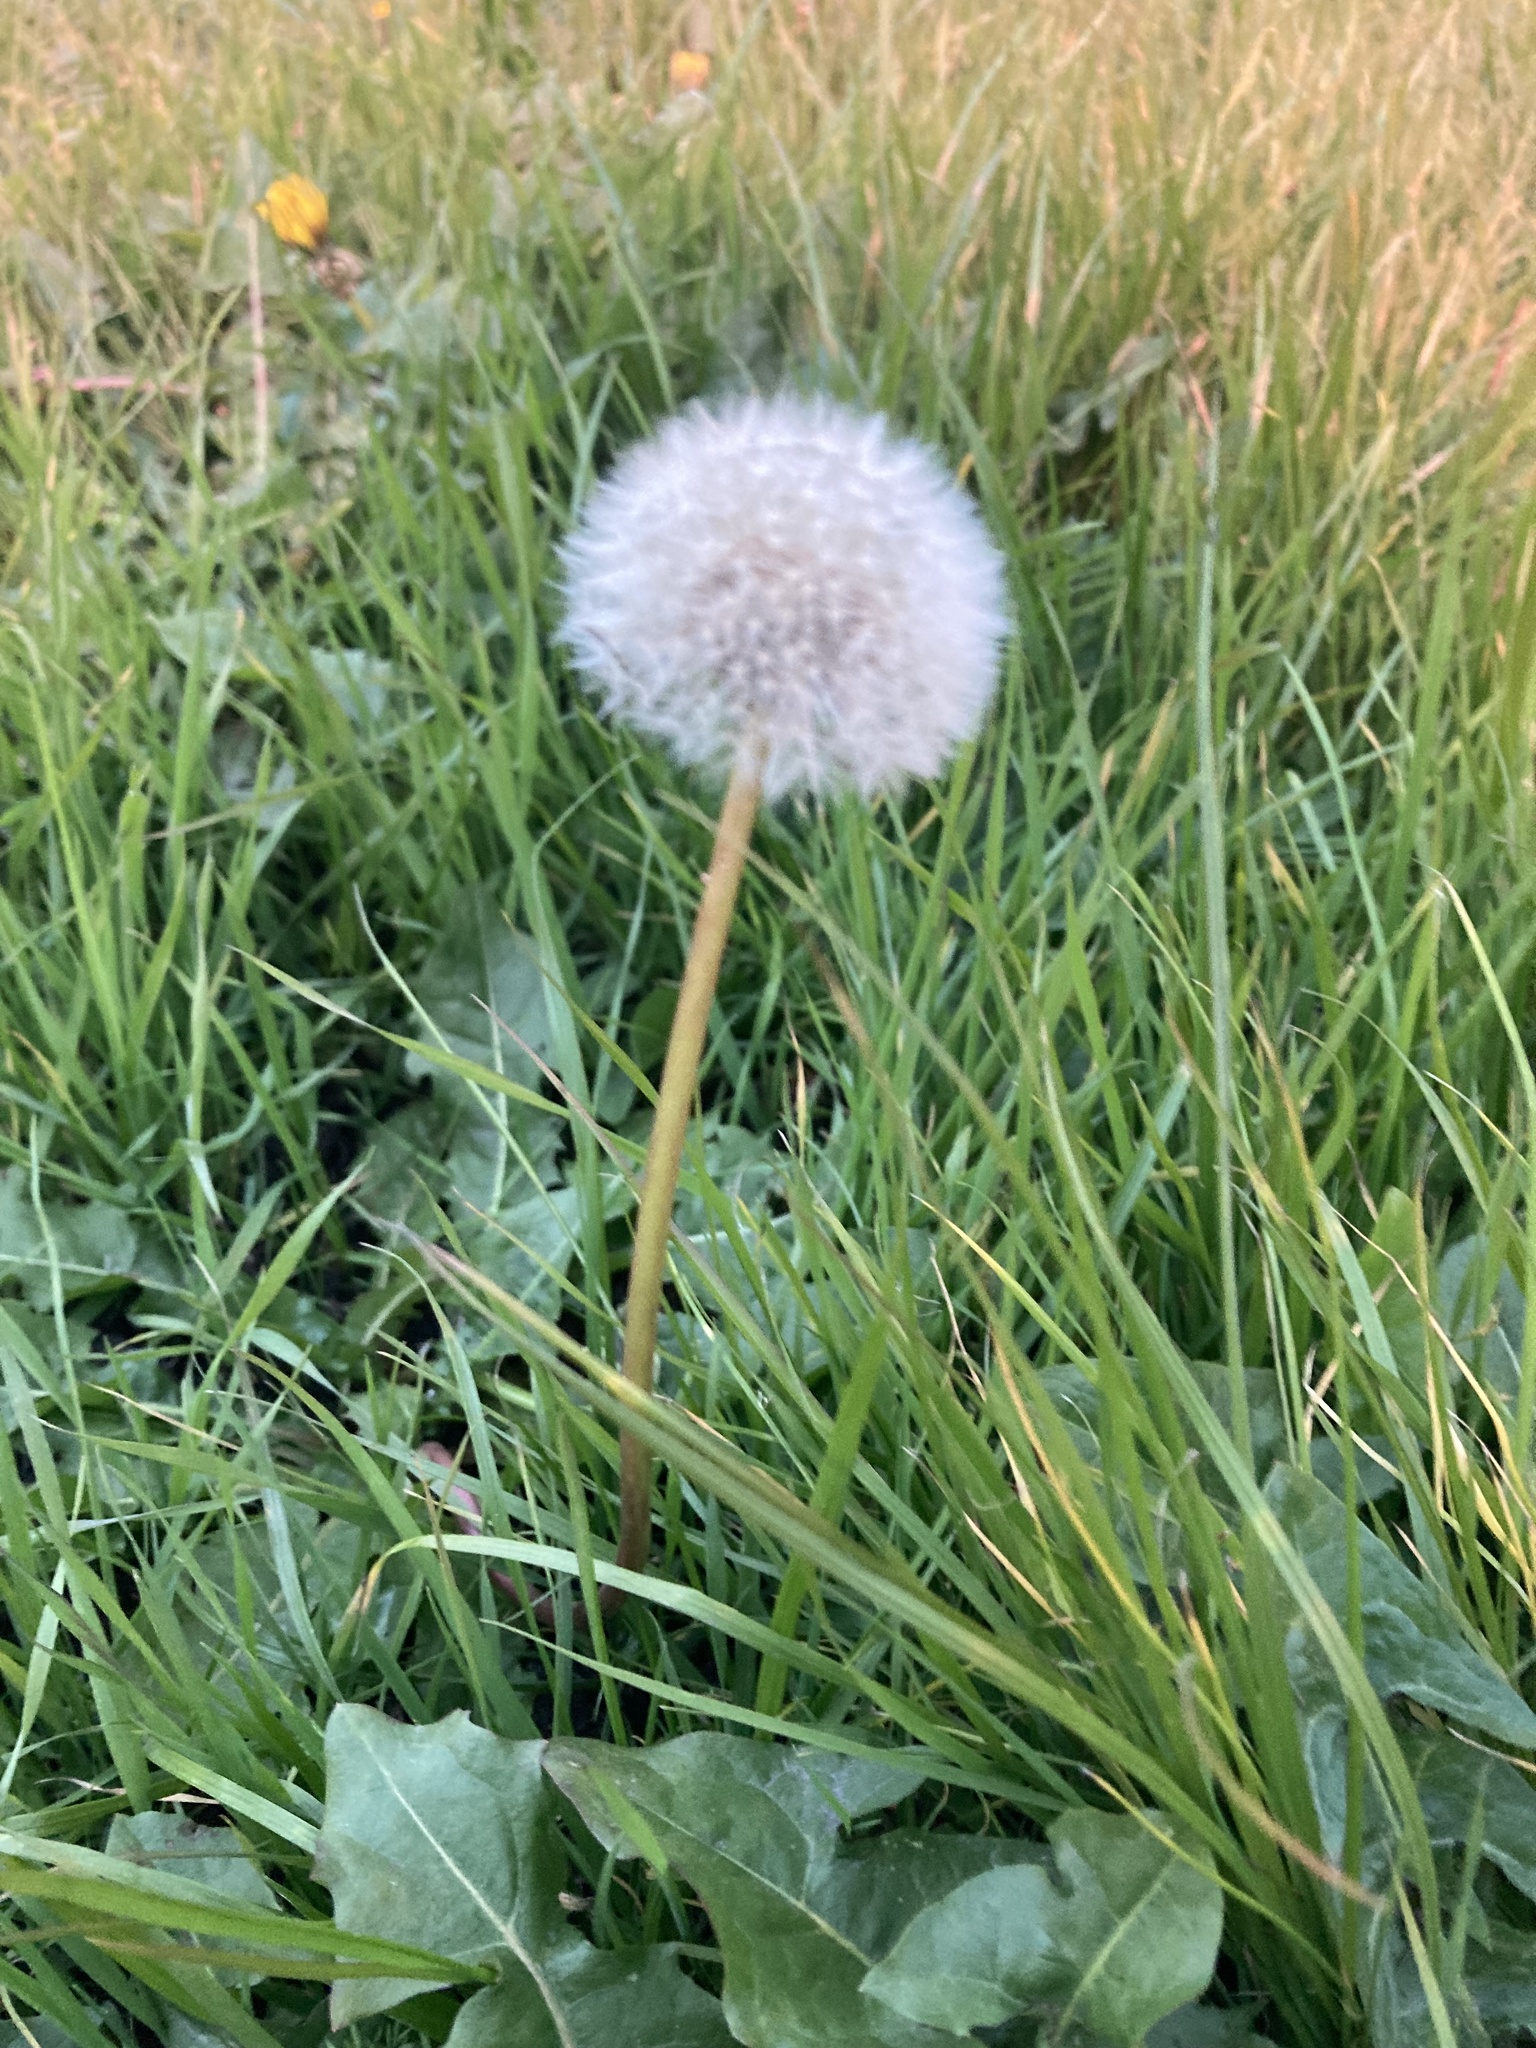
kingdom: Plantae
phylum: Tracheophyta
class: Magnoliopsida
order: Asterales
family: Asteraceae
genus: Taraxacum
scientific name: Taraxacum officinale
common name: Common dandelion
